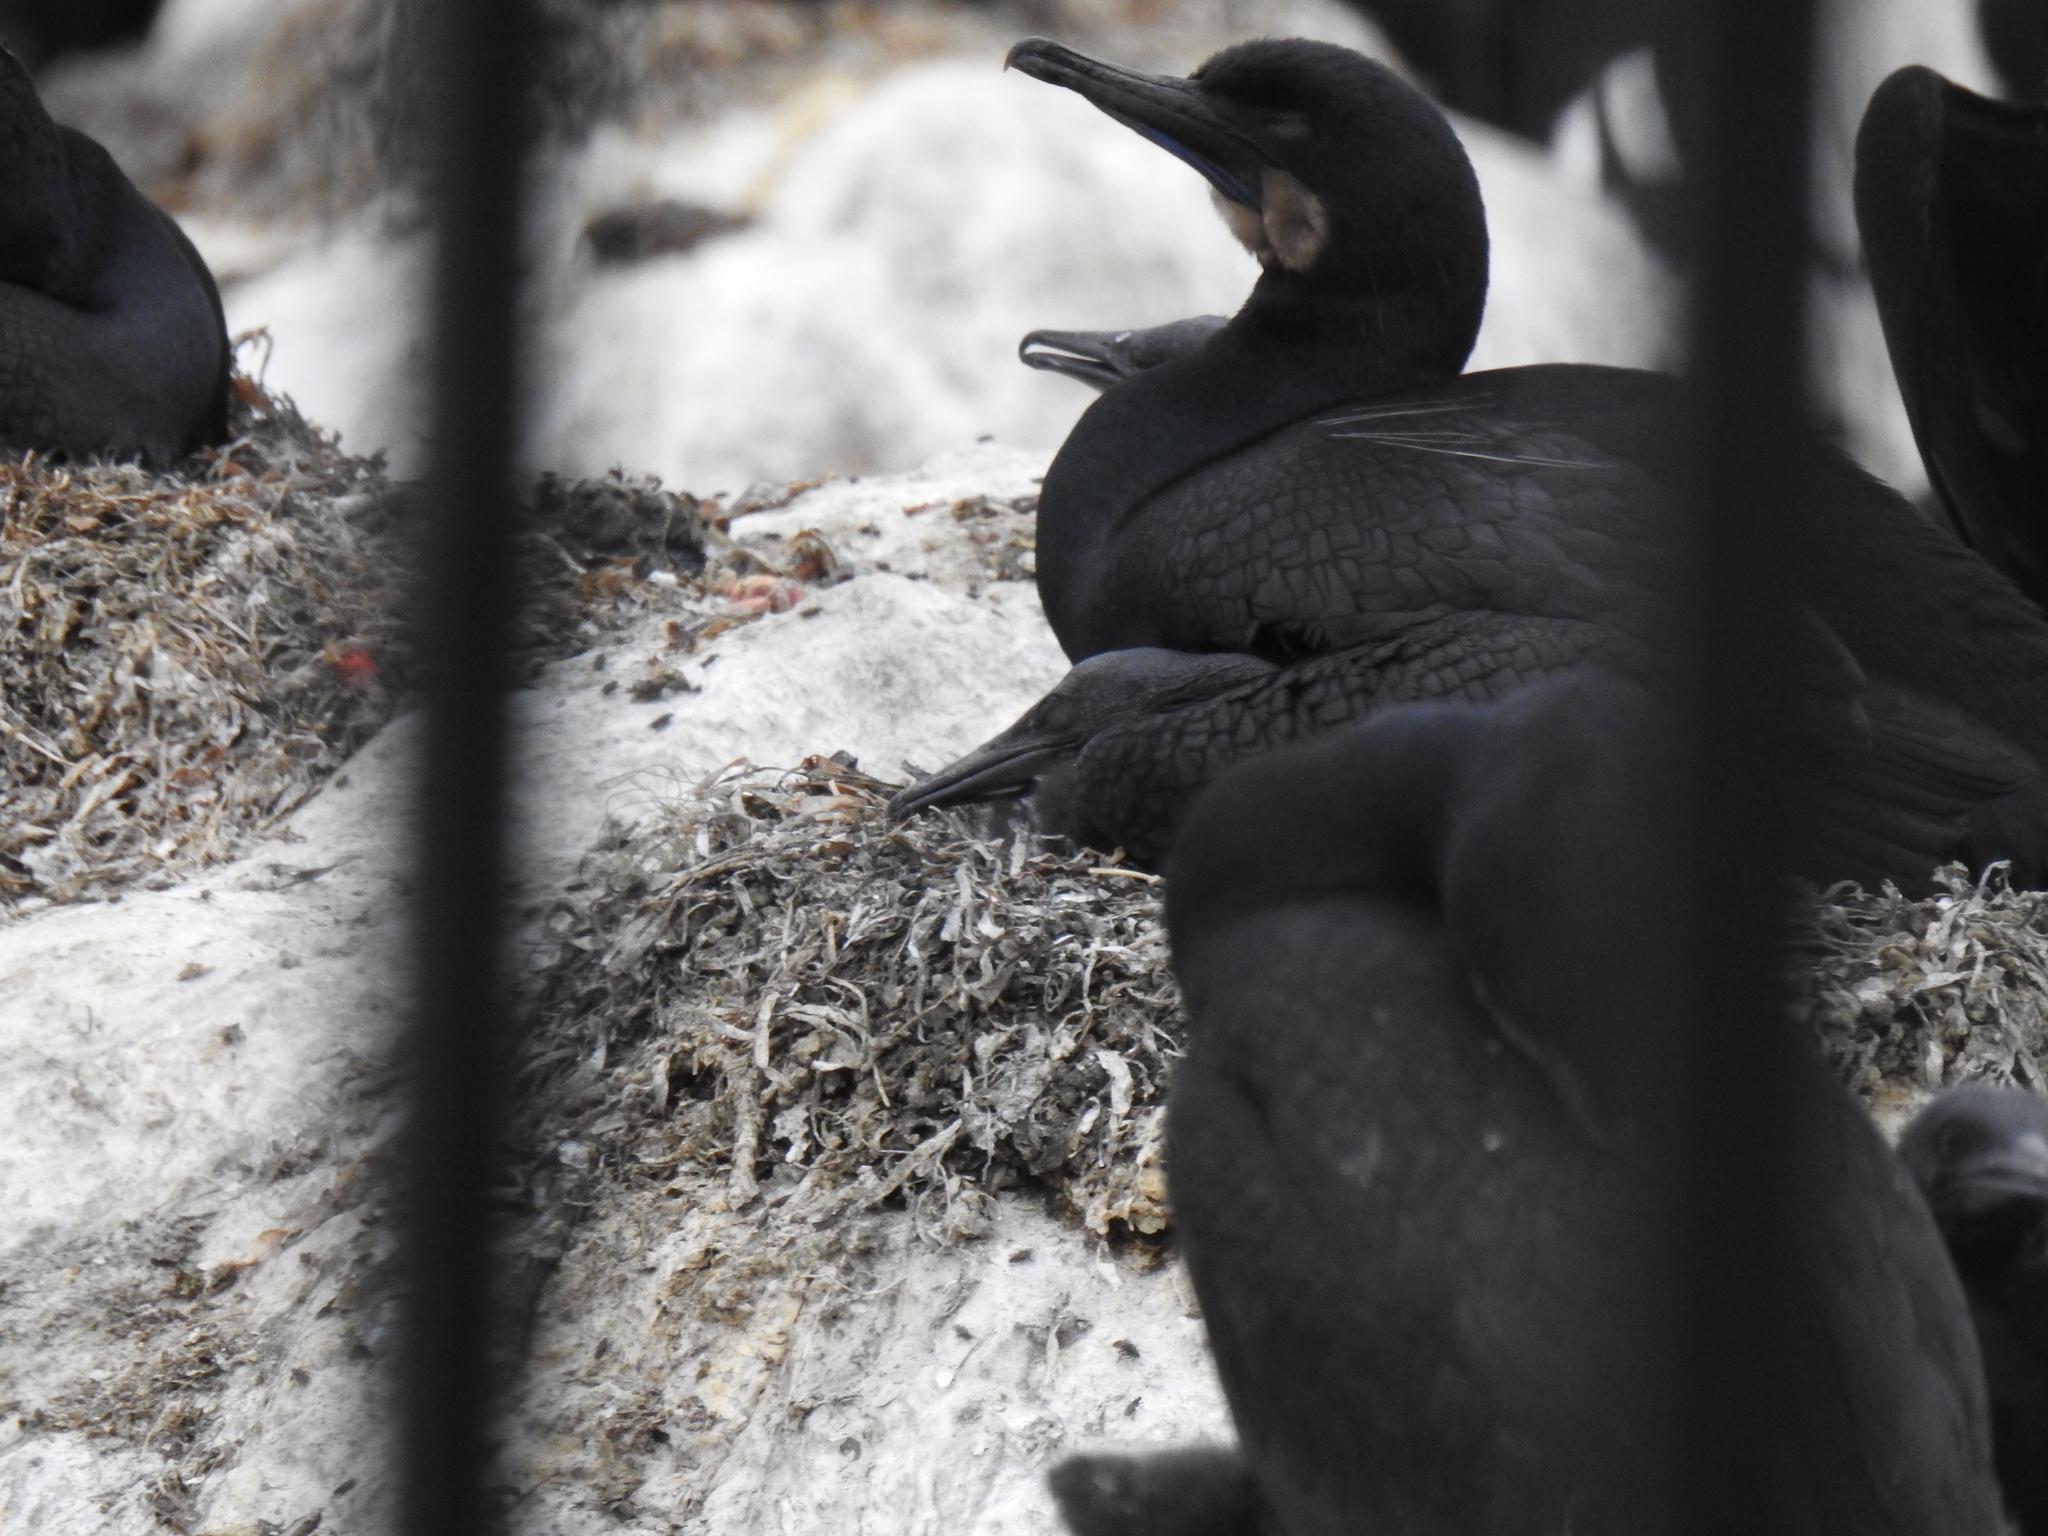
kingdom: Animalia
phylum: Chordata
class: Aves
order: Suliformes
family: Phalacrocoracidae
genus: Urile
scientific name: Urile penicillatus
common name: Brandt's cormorant
